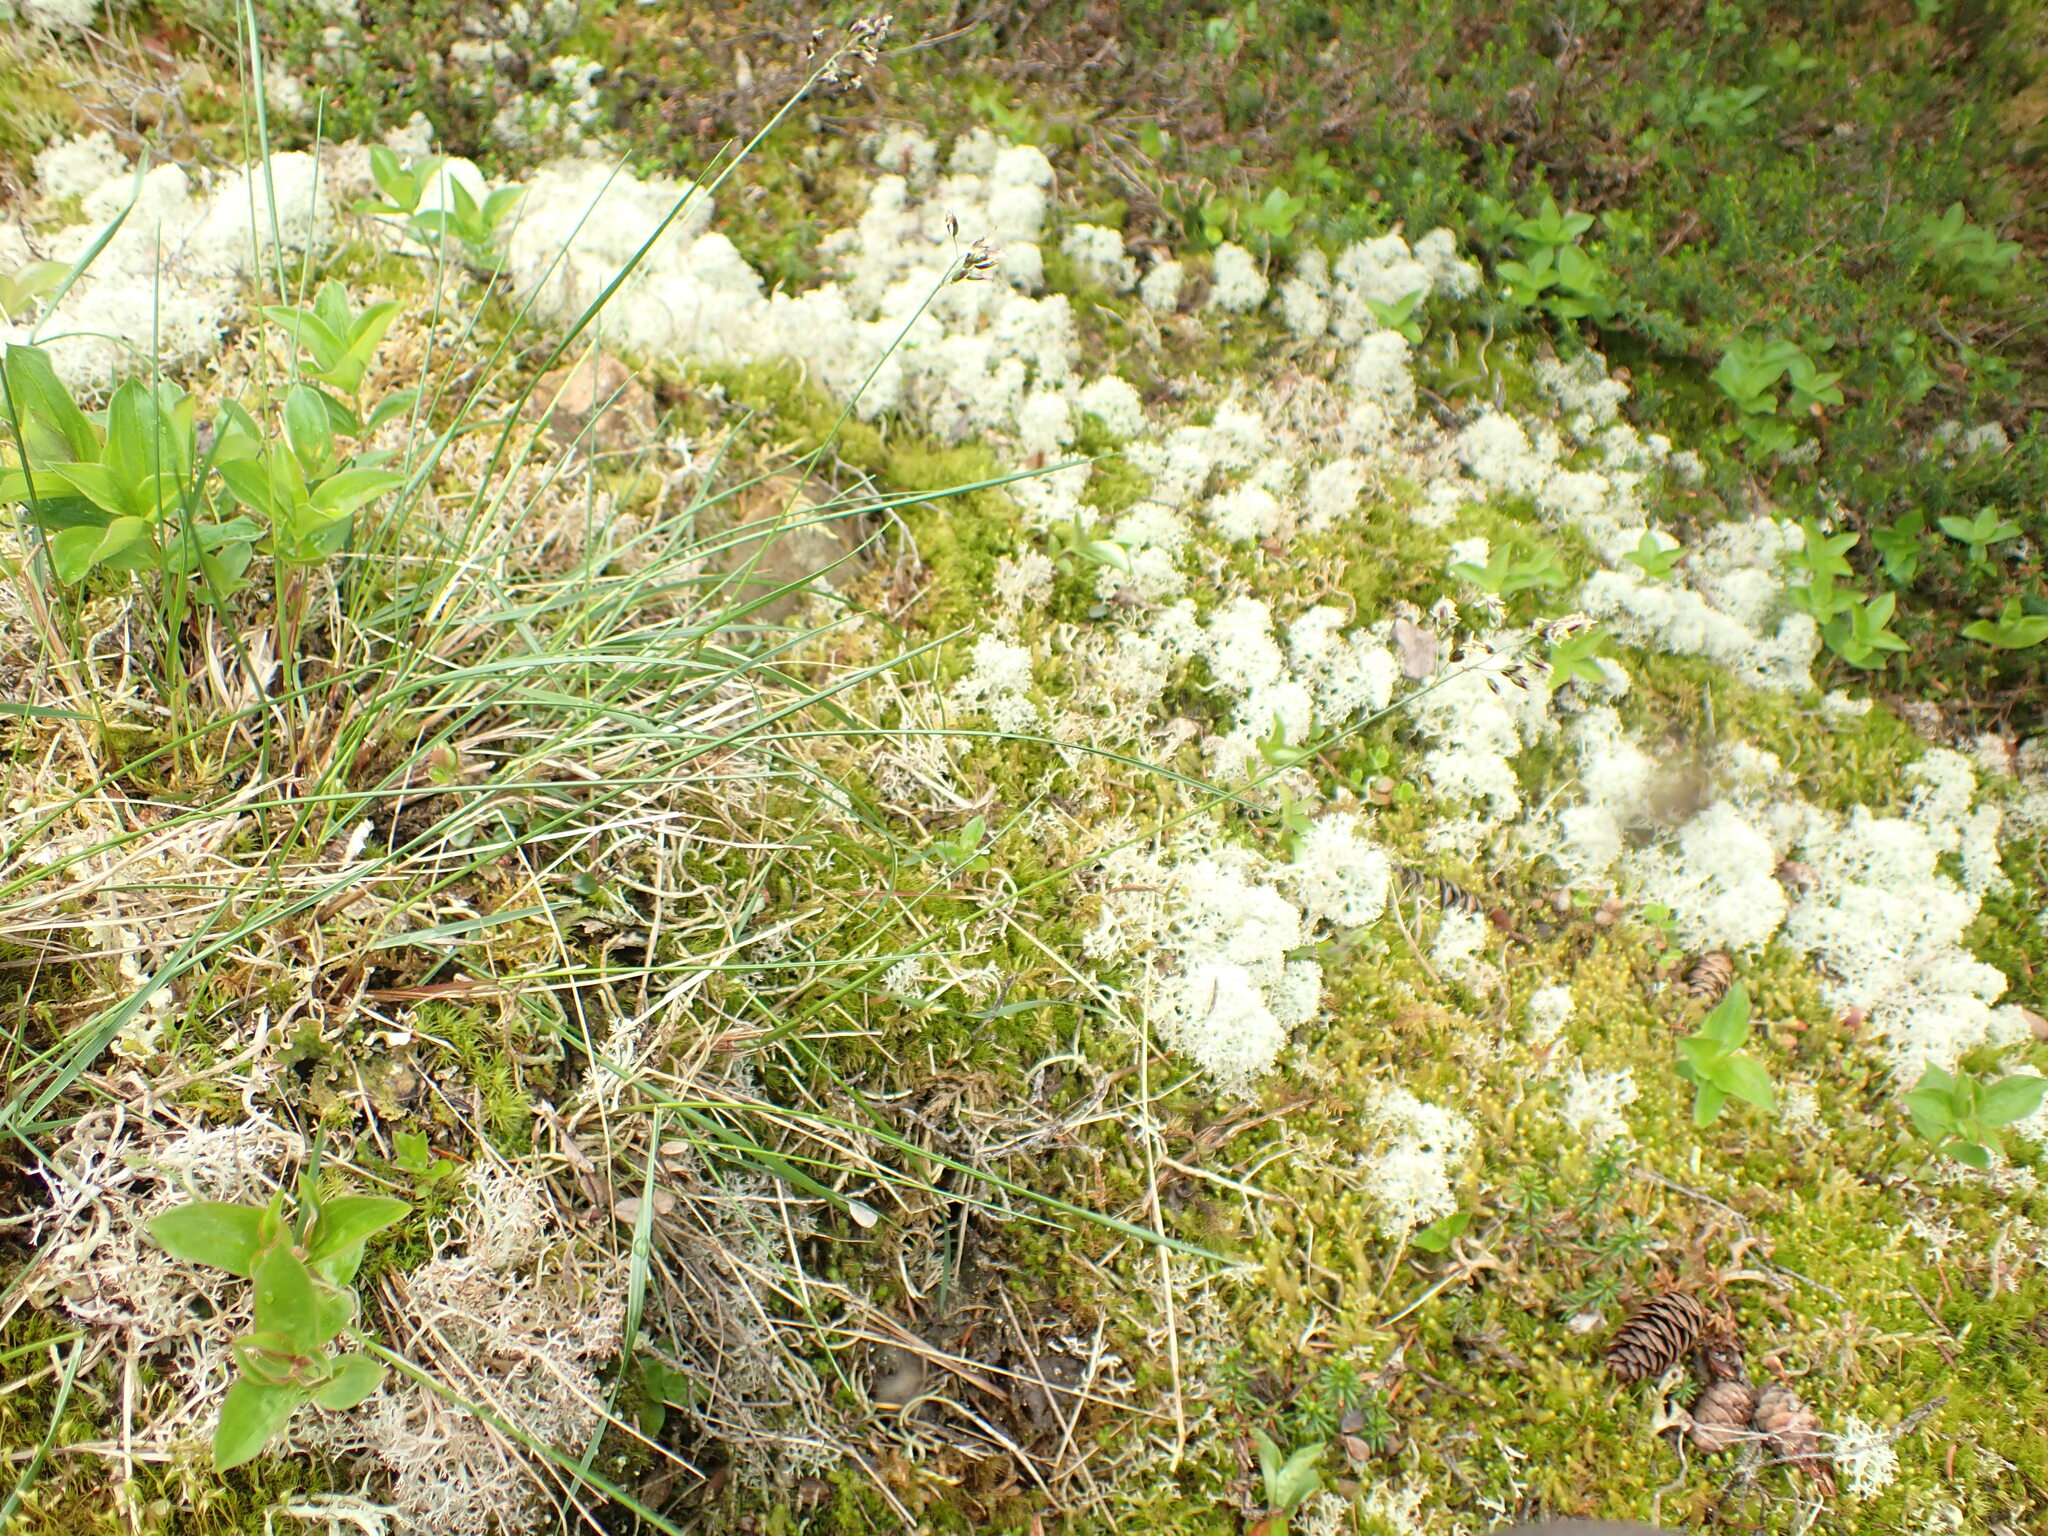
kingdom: Plantae
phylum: Tracheophyta
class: Liliopsida
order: Poales
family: Poaceae
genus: Anthoxanthum
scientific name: Anthoxanthum monticola
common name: Alpine sweetgrass
